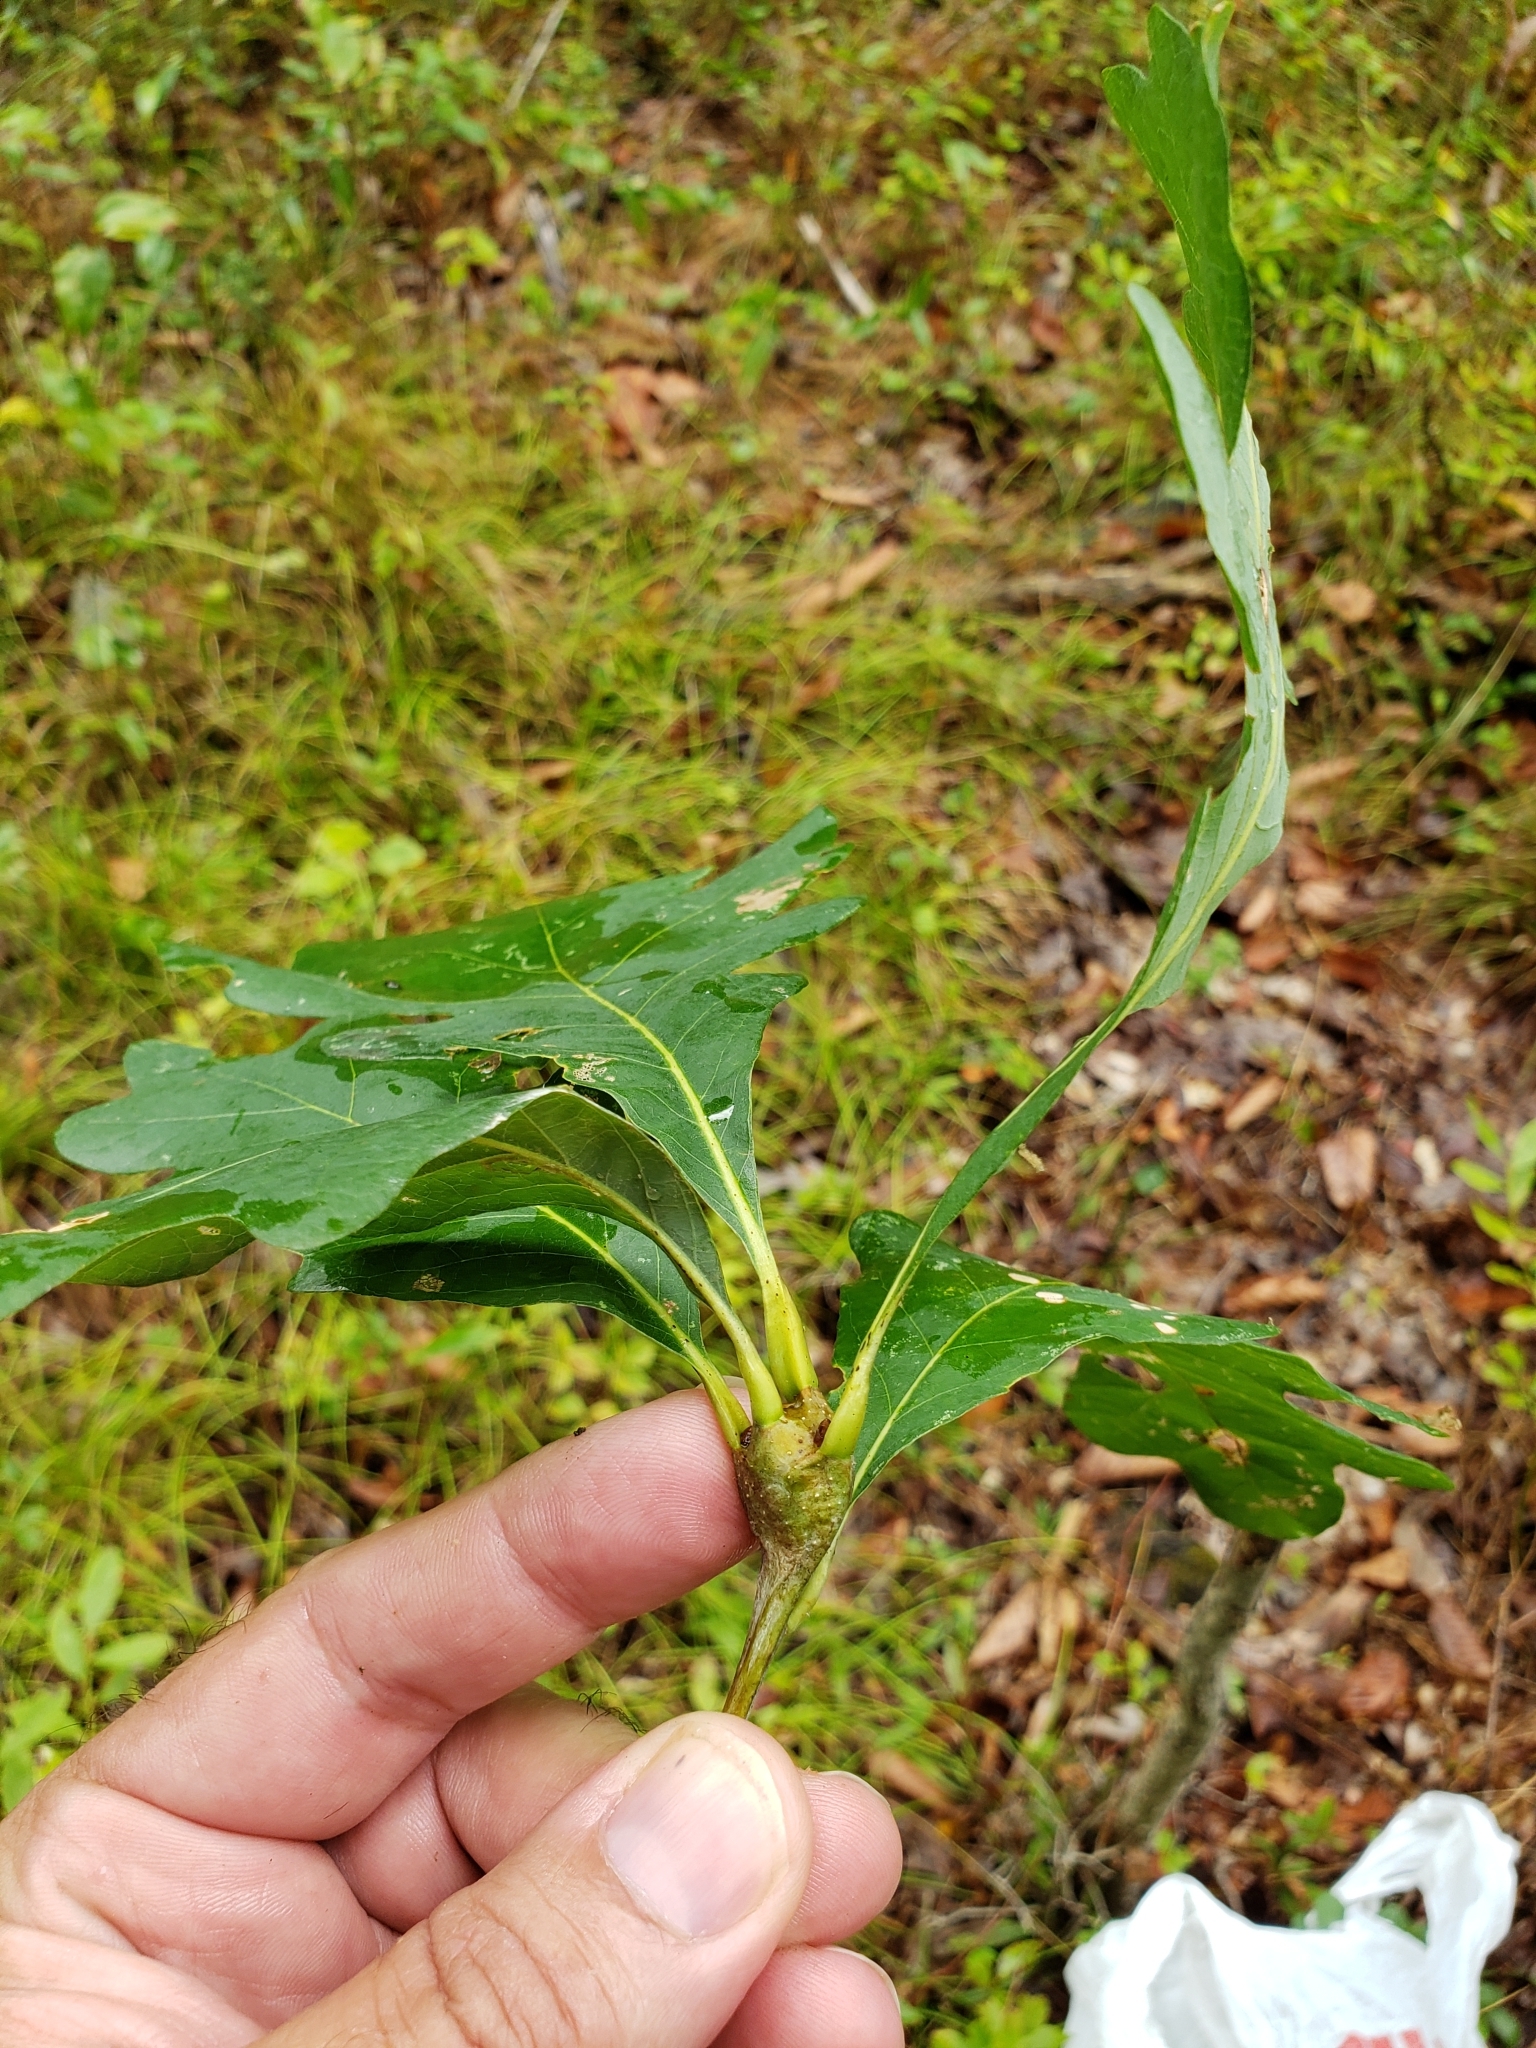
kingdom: Animalia
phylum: Arthropoda
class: Insecta
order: Hymenoptera
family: Cynipidae
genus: Callirhytis
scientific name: Callirhytis clavula
